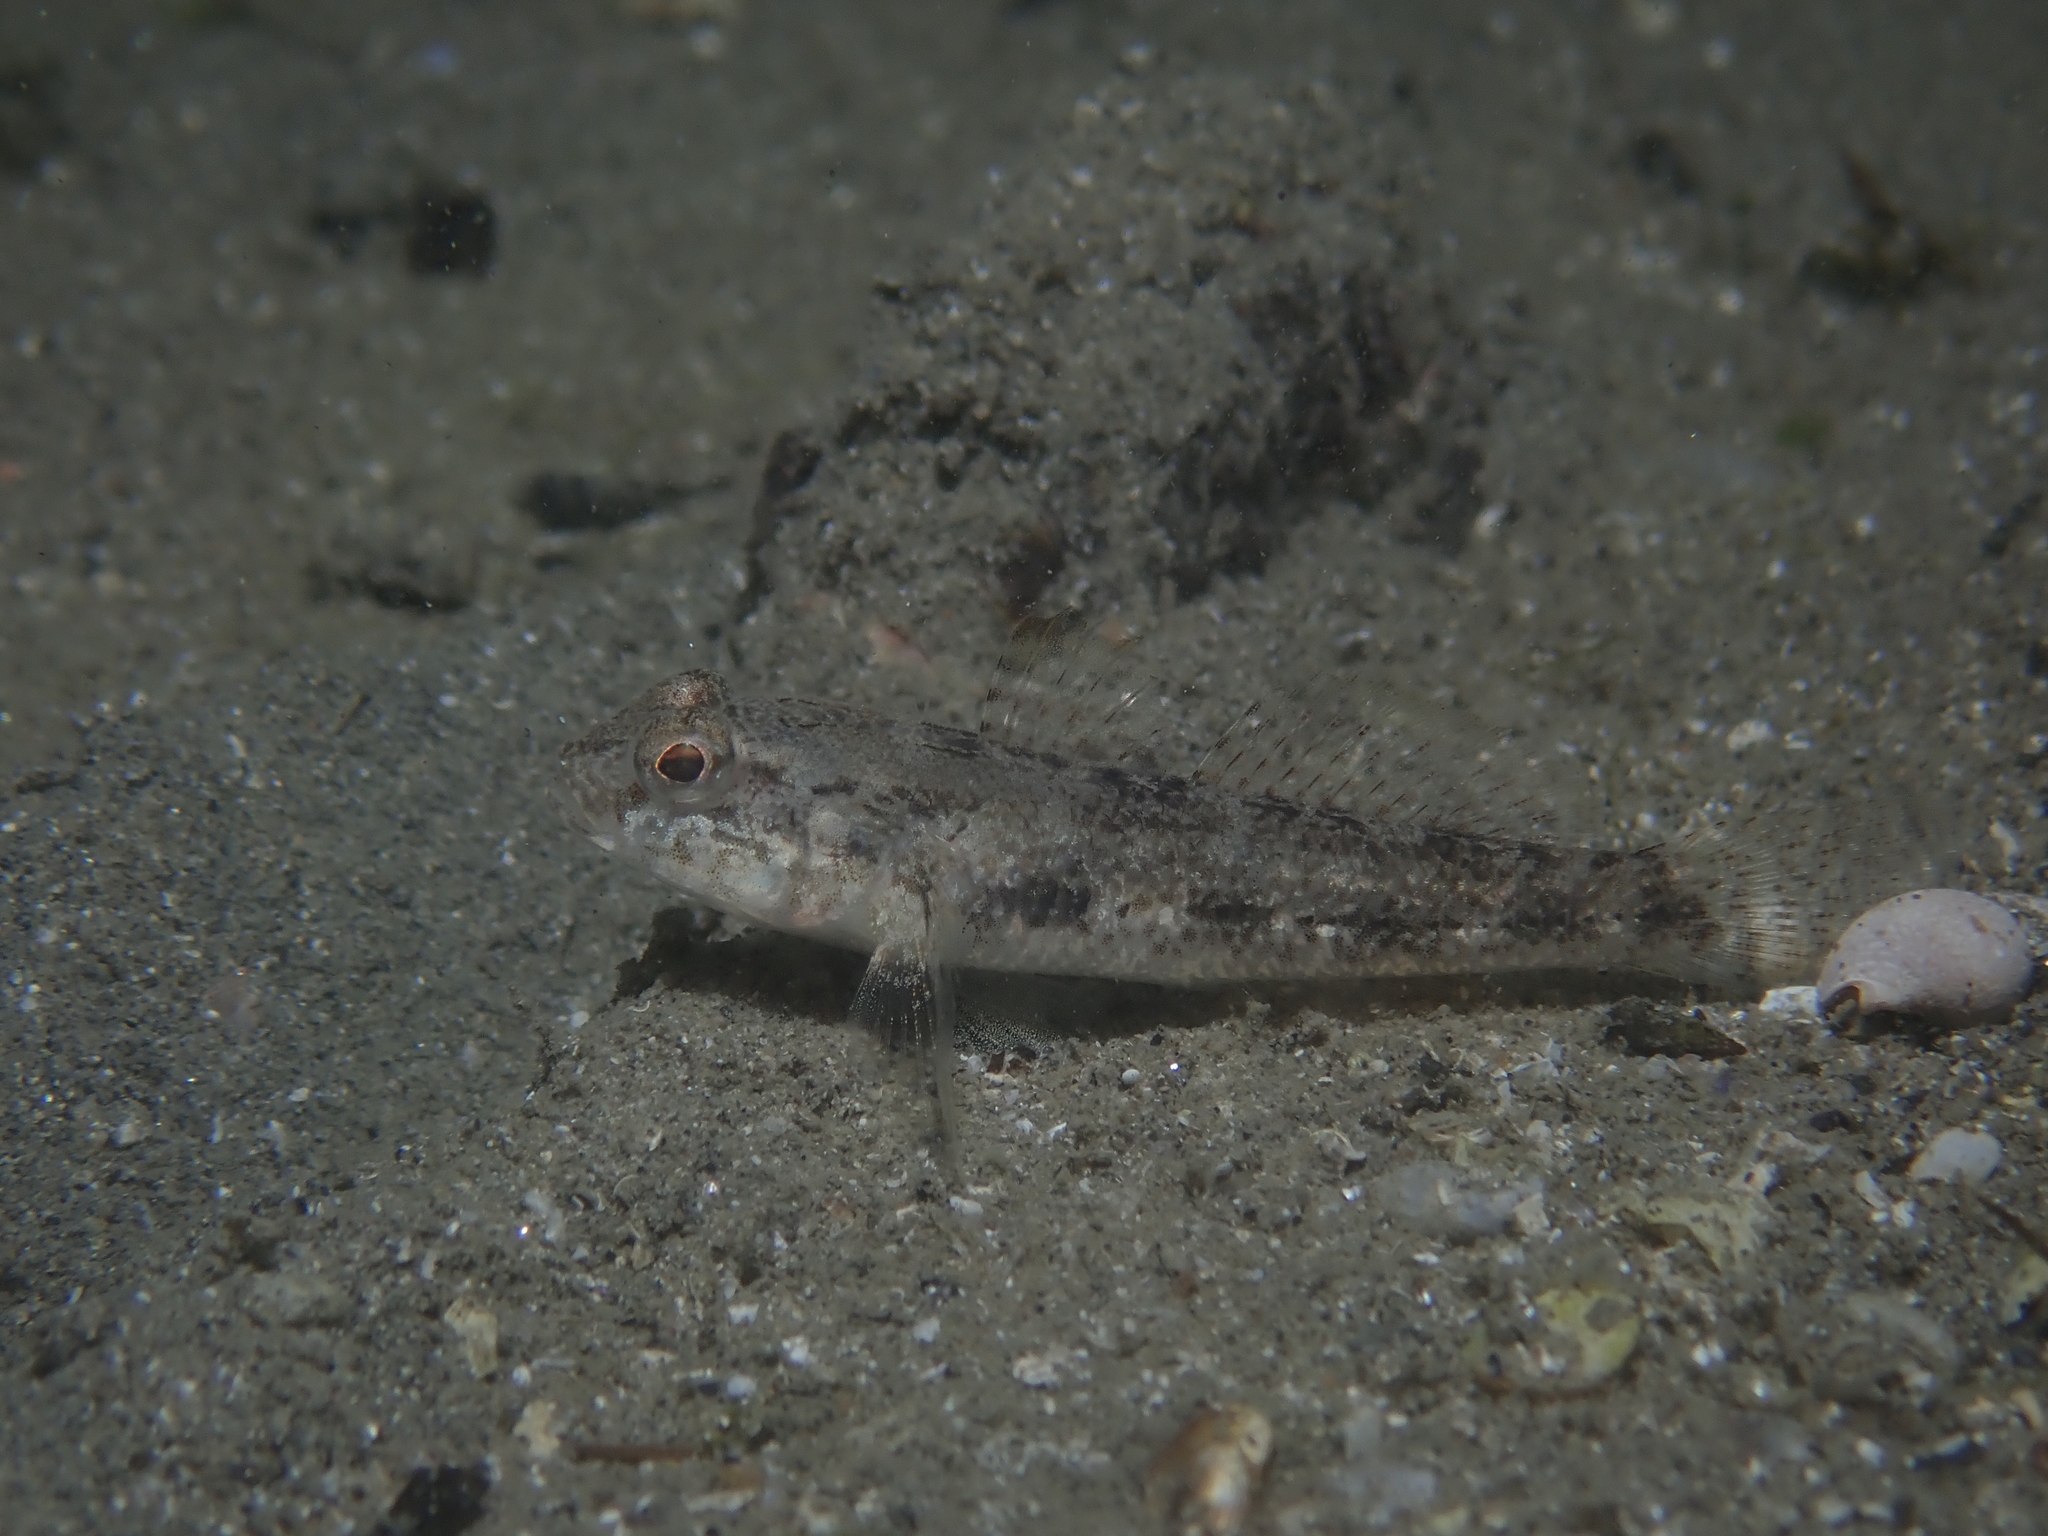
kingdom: Animalia
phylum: Chordata
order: Perciformes
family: Gobiidae
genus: Gobius
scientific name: Gobius niger
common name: Black goby
